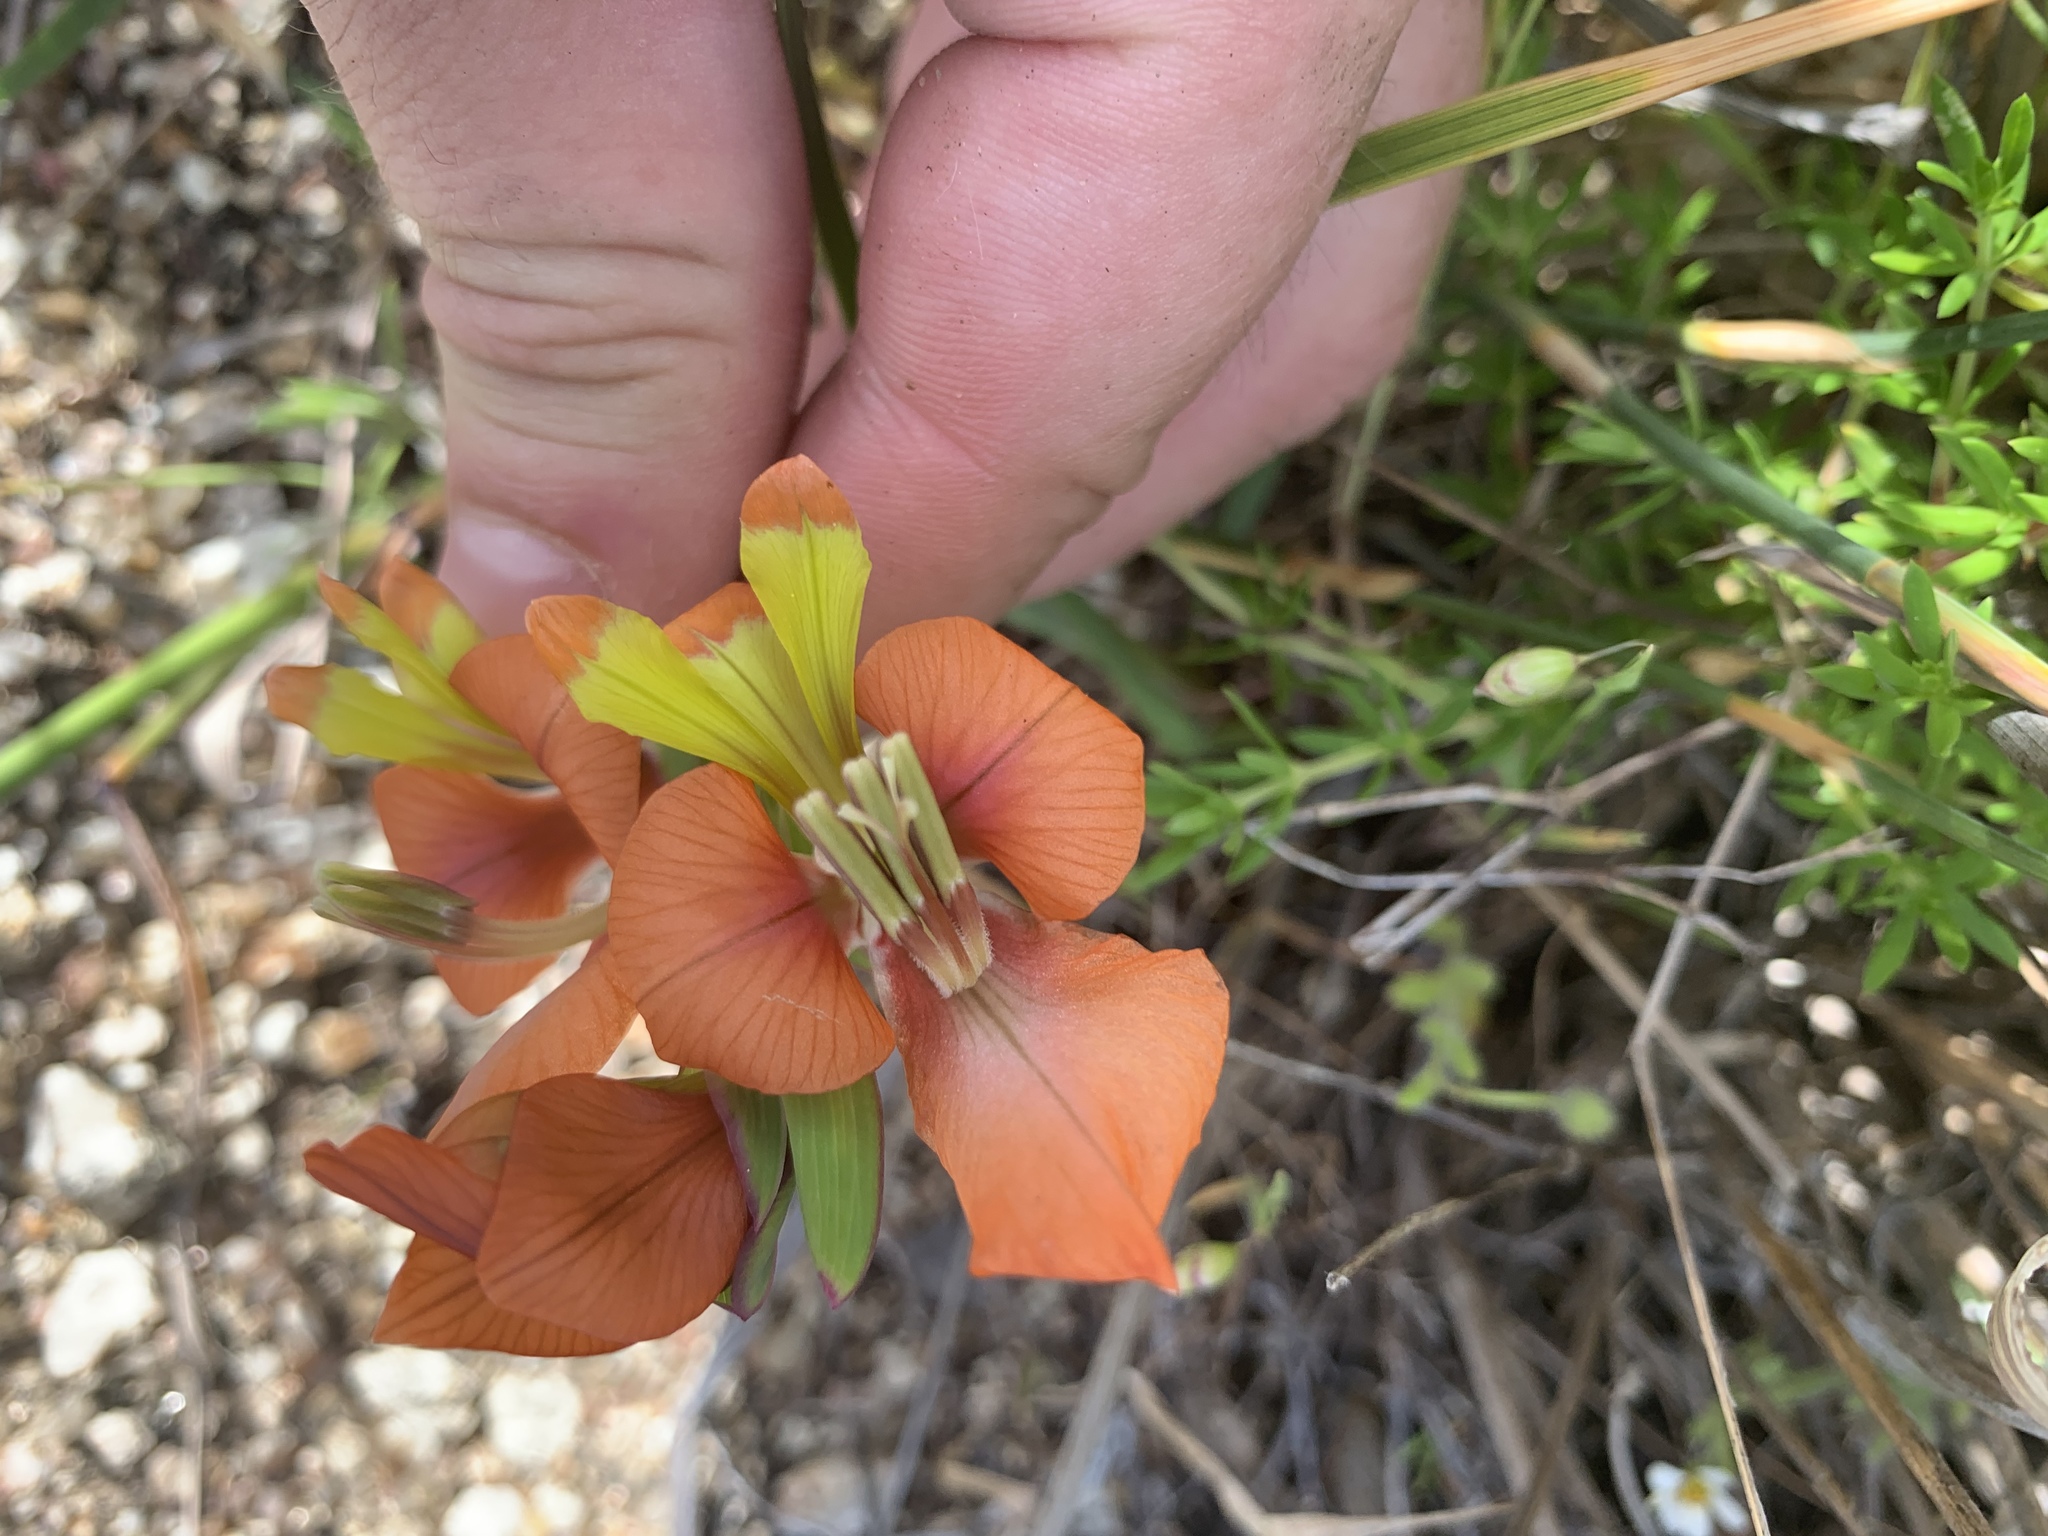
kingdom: Plantae
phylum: Tracheophyta
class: Liliopsida
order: Asparagales
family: Iridaceae
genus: Gladiolus
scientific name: Gladiolus alatus
